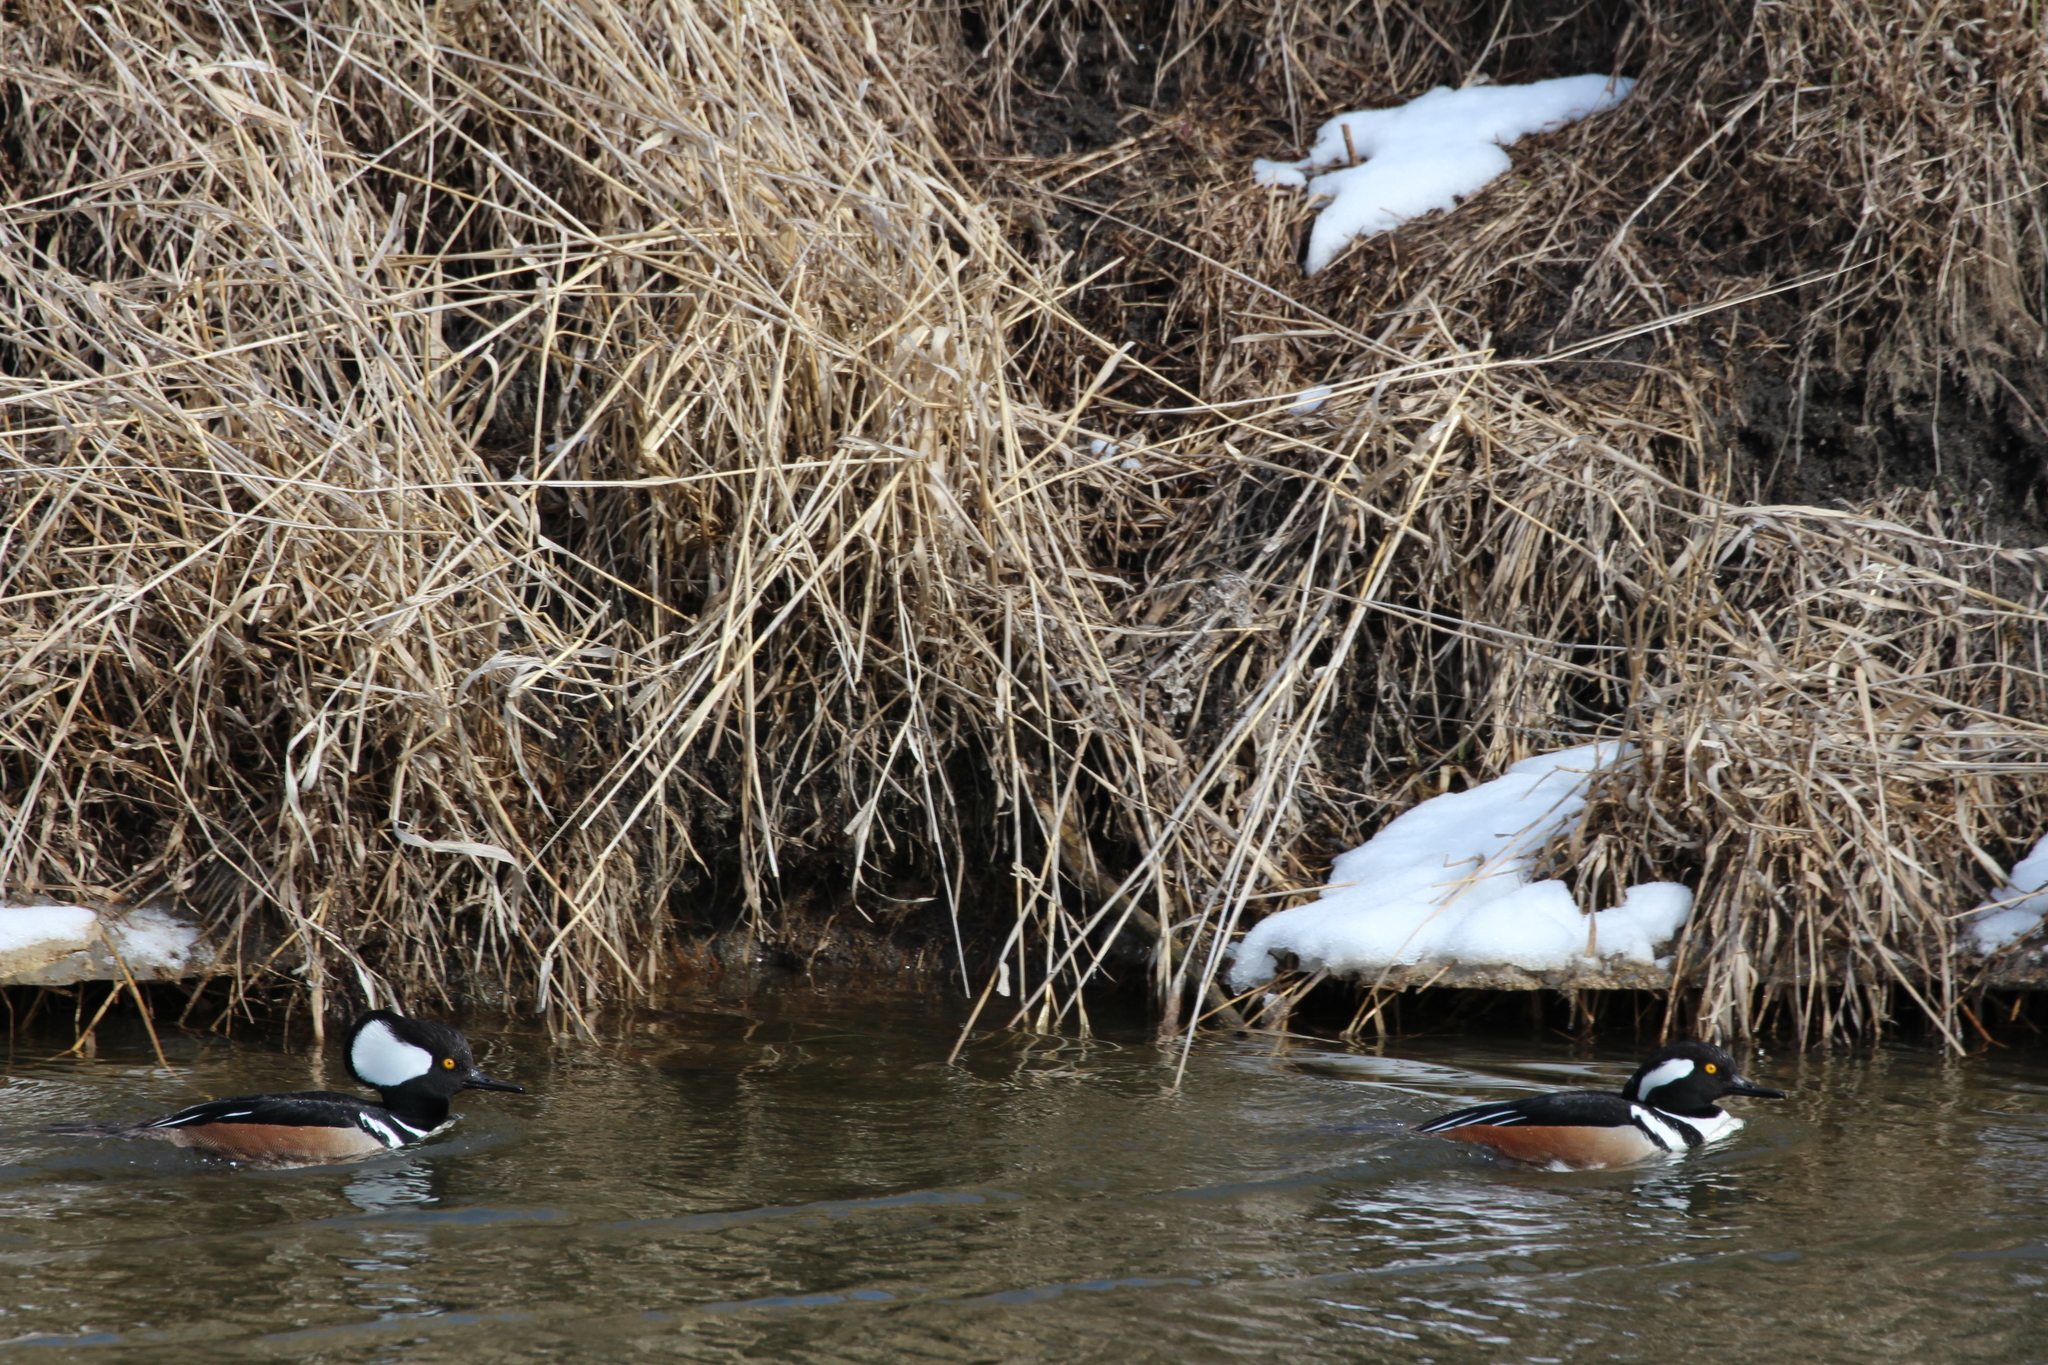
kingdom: Animalia
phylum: Chordata
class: Aves
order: Anseriformes
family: Anatidae
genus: Lophodytes
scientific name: Lophodytes cucullatus
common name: Hooded merganser
